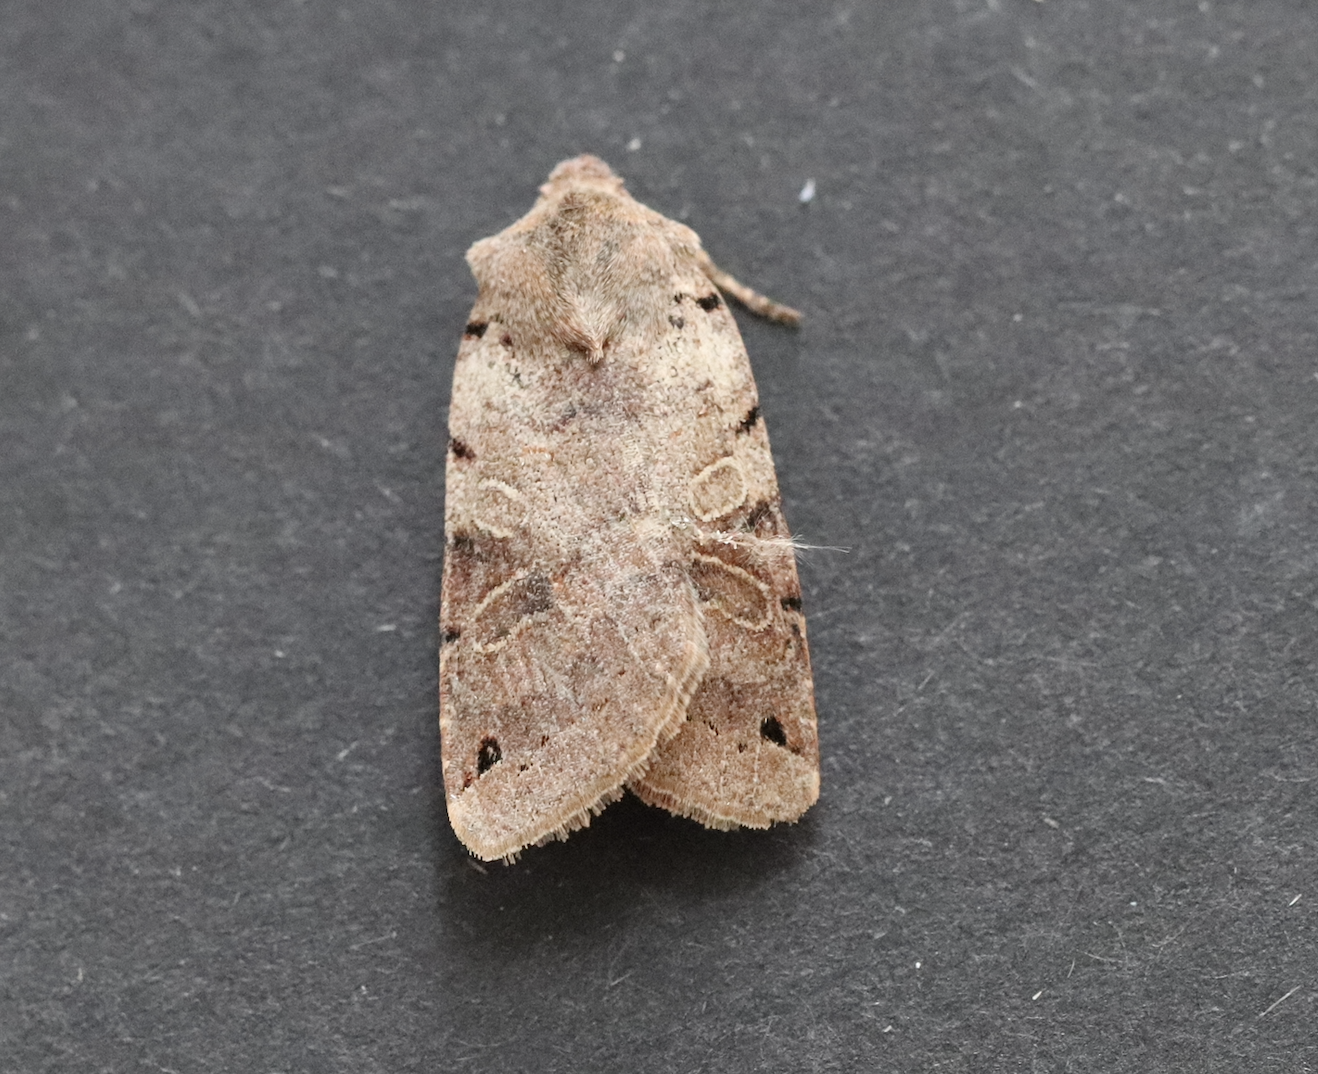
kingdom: Animalia
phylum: Arthropoda
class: Insecta
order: Lepidoptera
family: Noctuidae
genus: Agrochola
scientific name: Agrochola litura
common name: Brown-spot pinion
